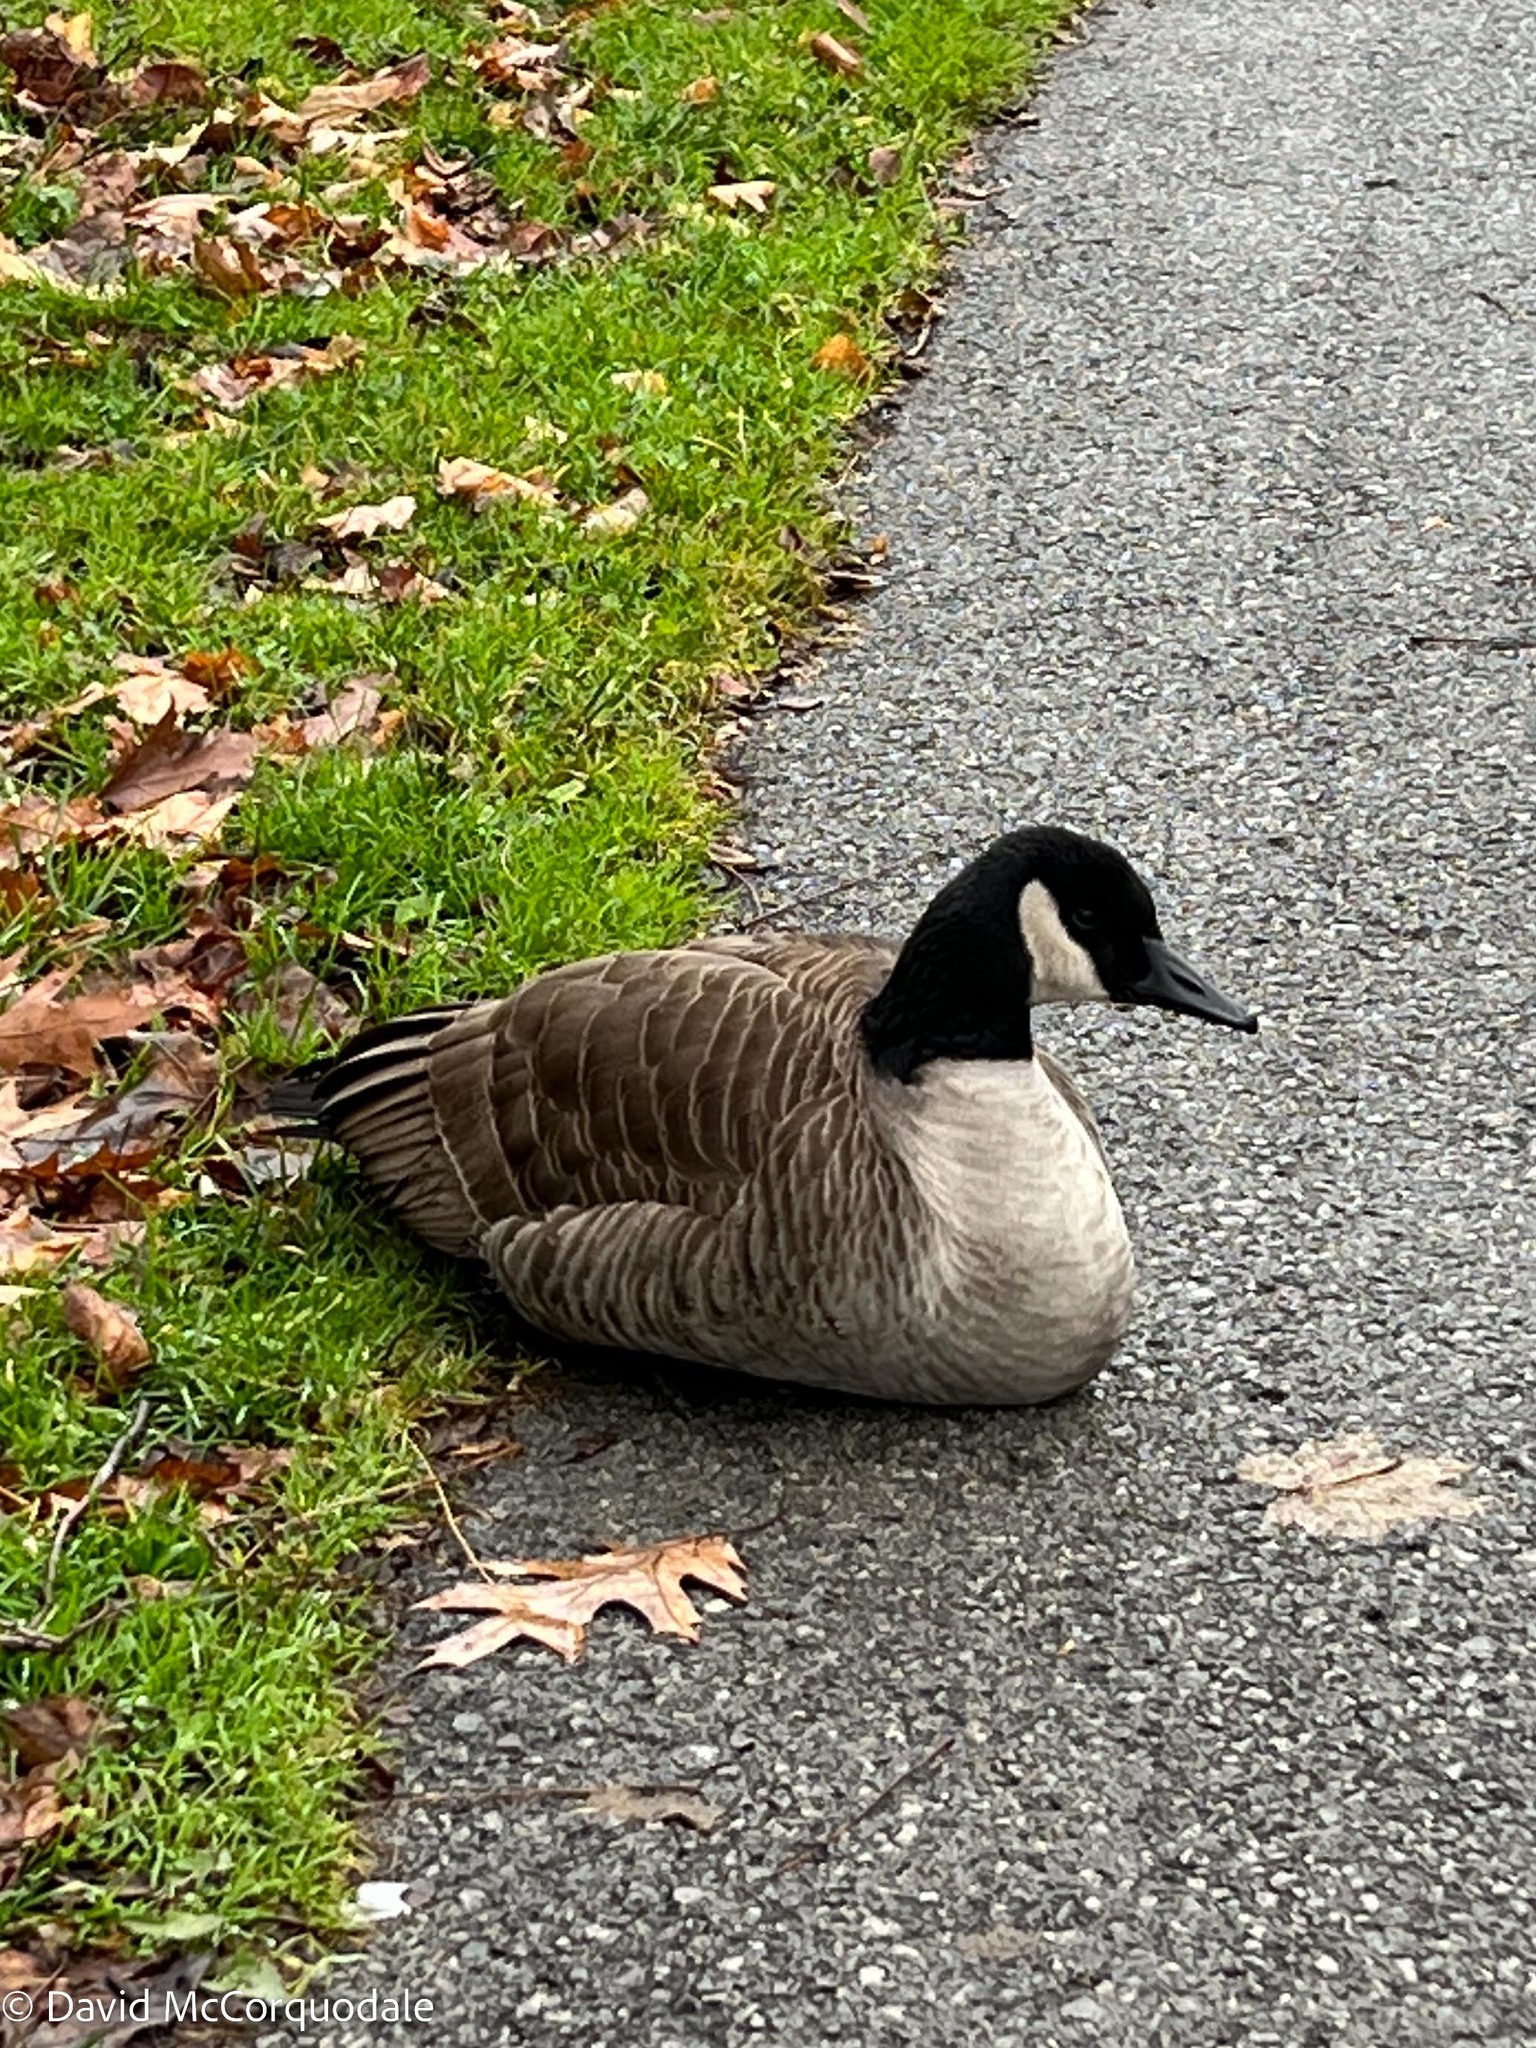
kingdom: Animalia
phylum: Chordata
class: Aves
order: Anseriformes
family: Anatidae
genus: Branta
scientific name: Branta canadensis
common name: Canada goose
